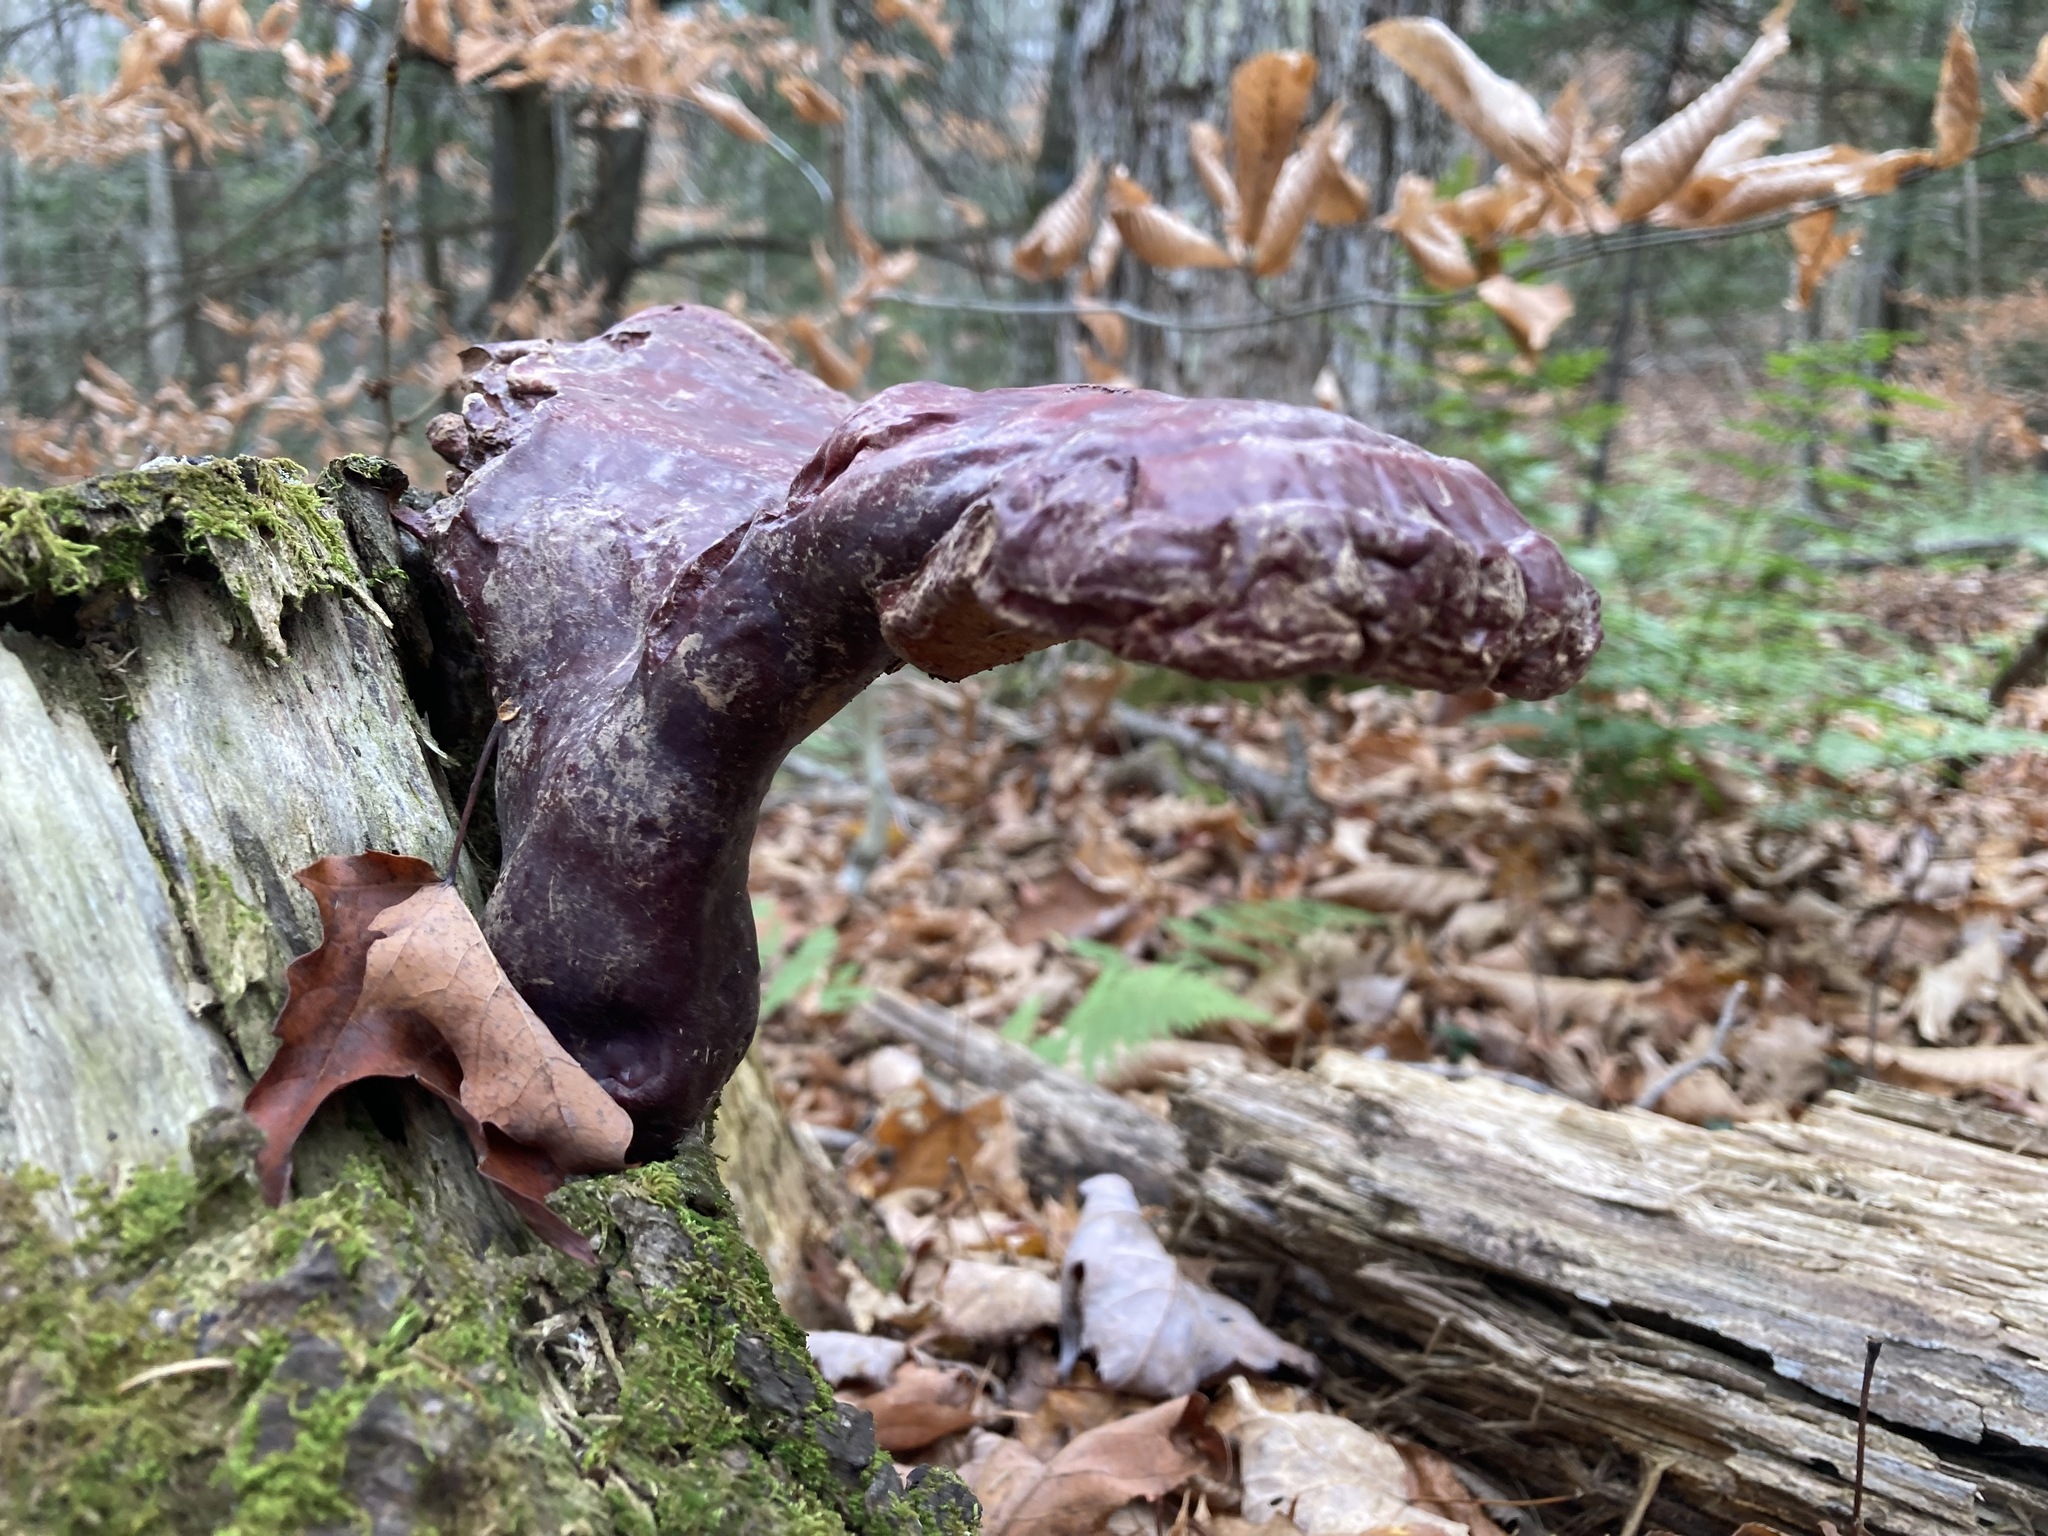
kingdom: Fungi
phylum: Basidiomycota
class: Agaricomycetes
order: Polyporales
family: Polyporaceae
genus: Ganoderma
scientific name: Ganoderma tsugae
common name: Hemlock varnish shelf
